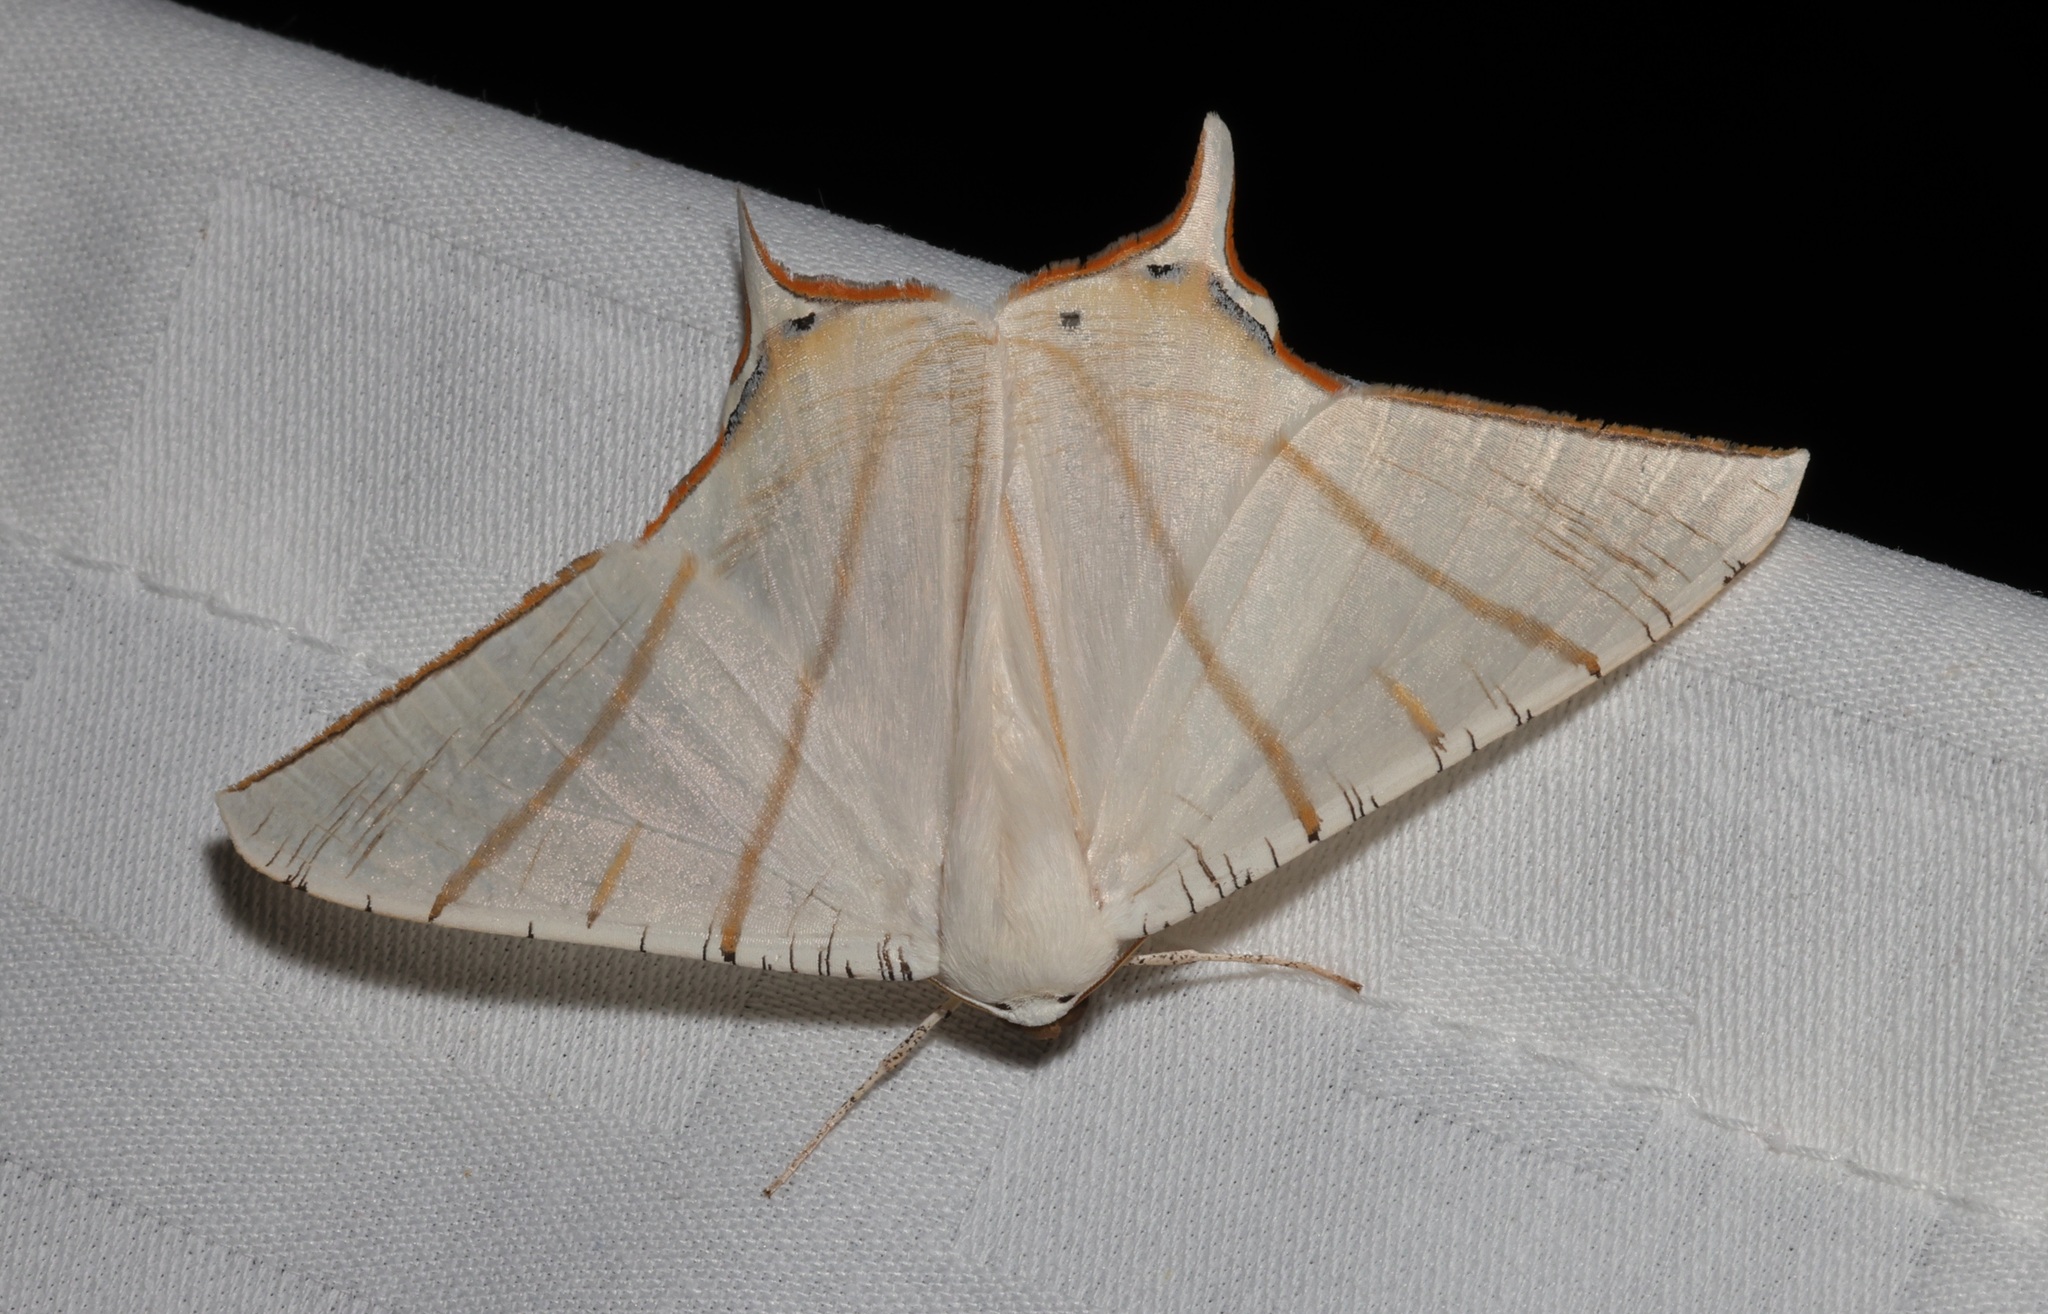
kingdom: Animalia
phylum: Arthropoda
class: Insecta
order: Lepidoptera
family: Geometridae
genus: Ourapteryx
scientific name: Ourapteryx clara
